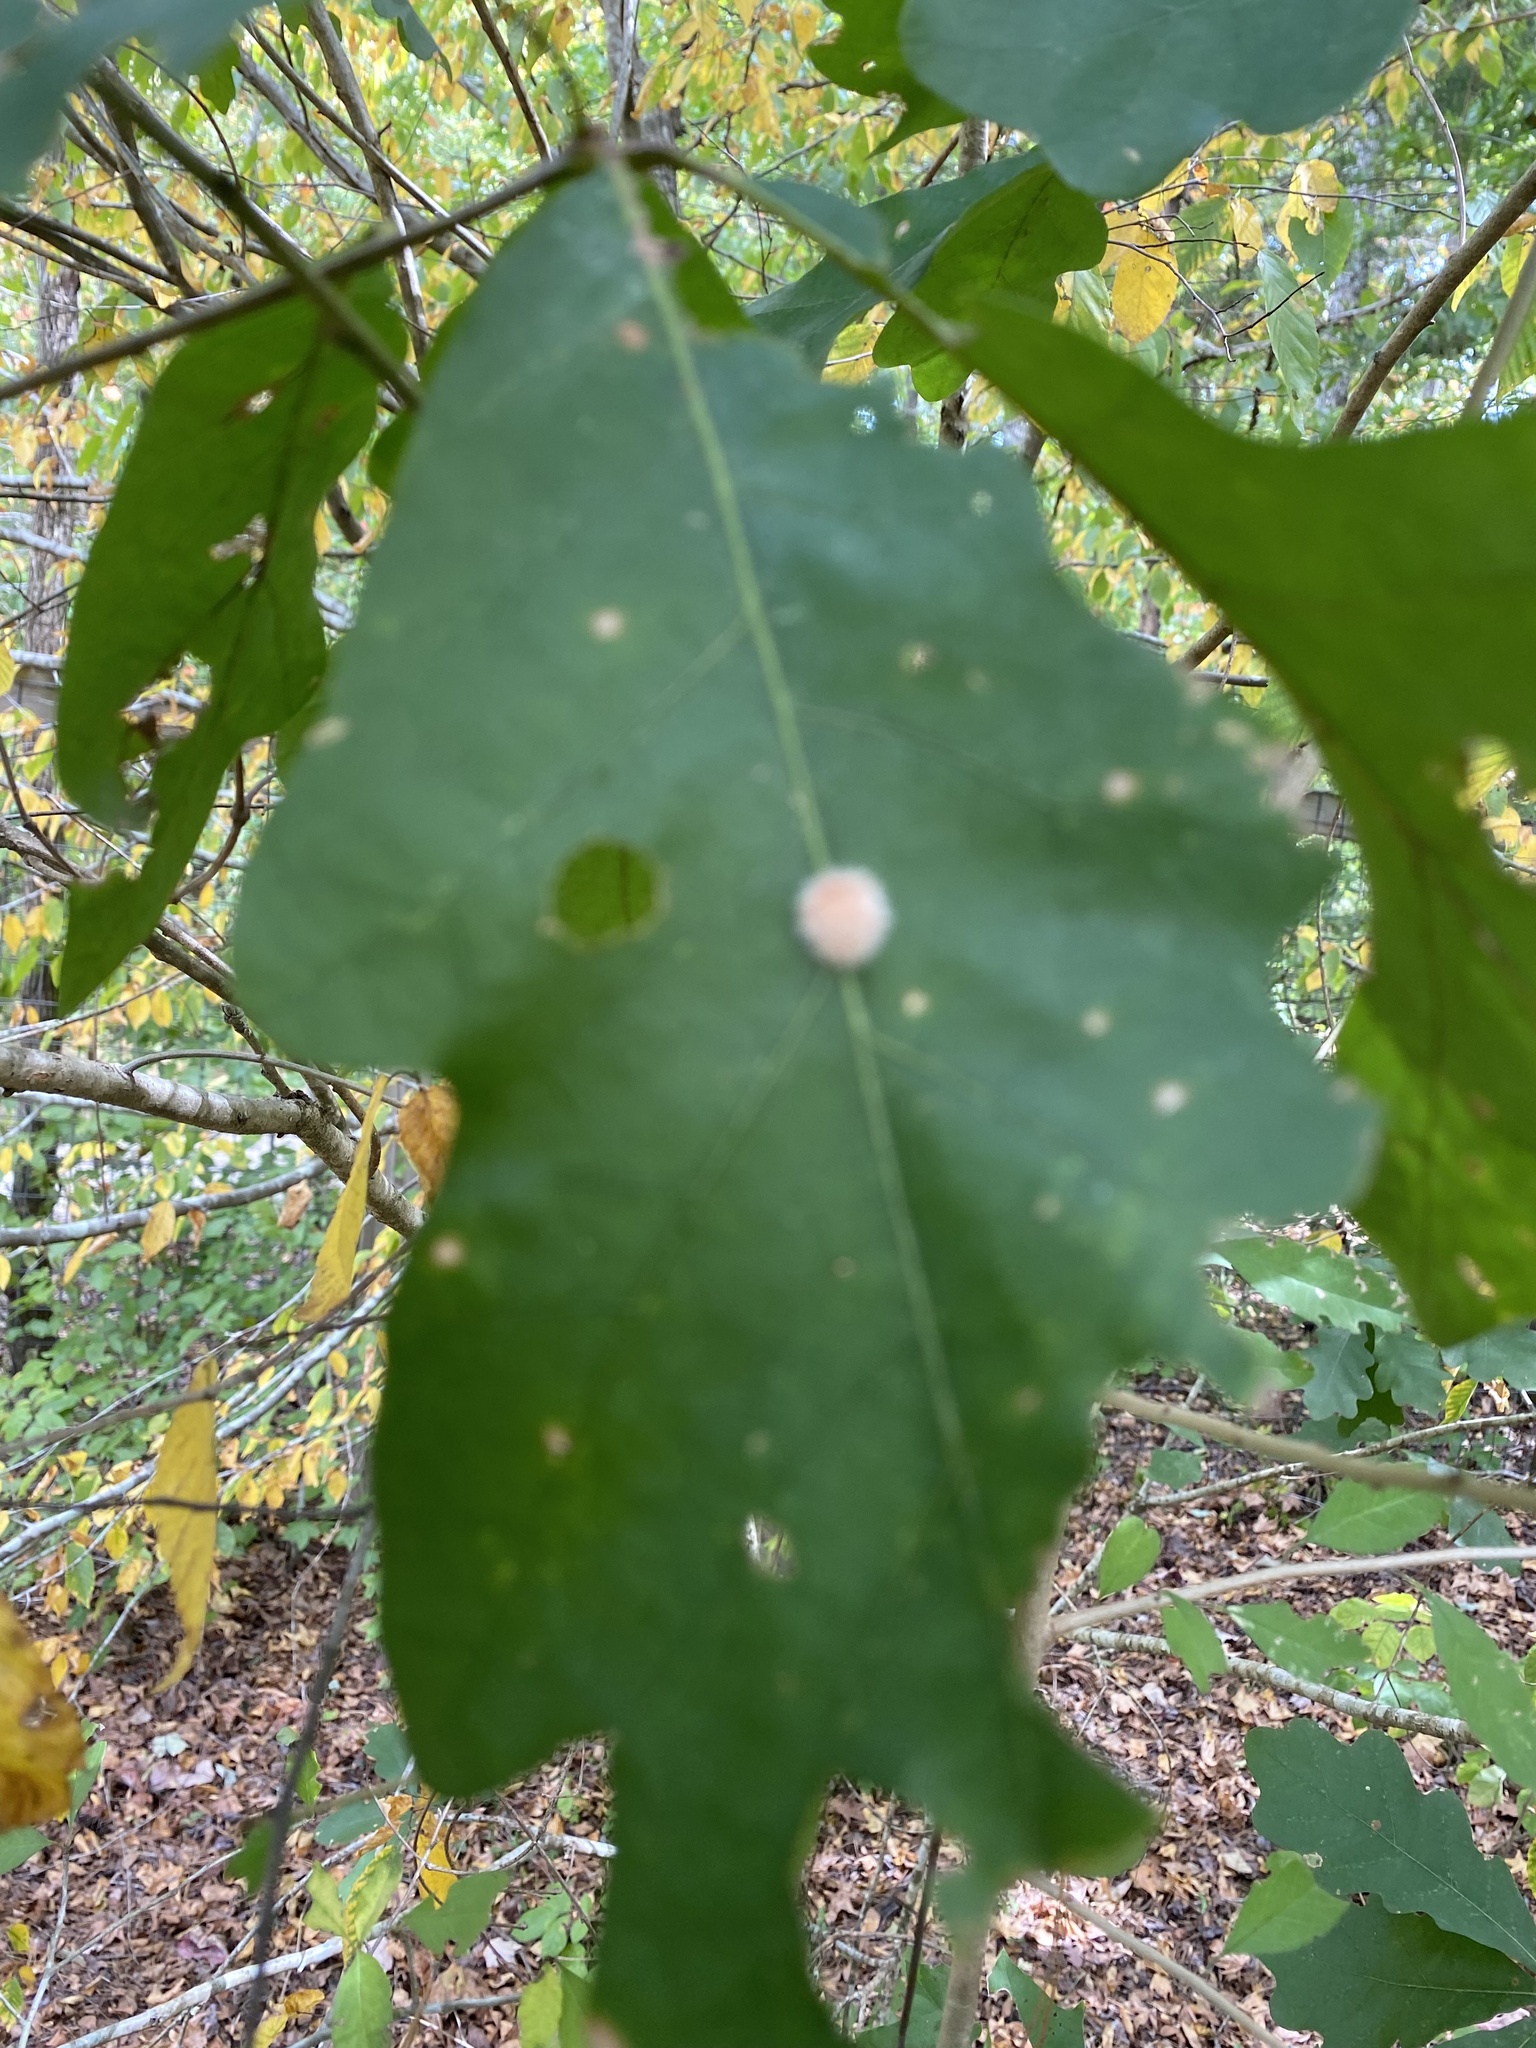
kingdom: Animalia
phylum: Arthropoda
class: Insecta
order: Hymenoptera
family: Cynipidae
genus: Andricus
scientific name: Andricus quercusflocci
